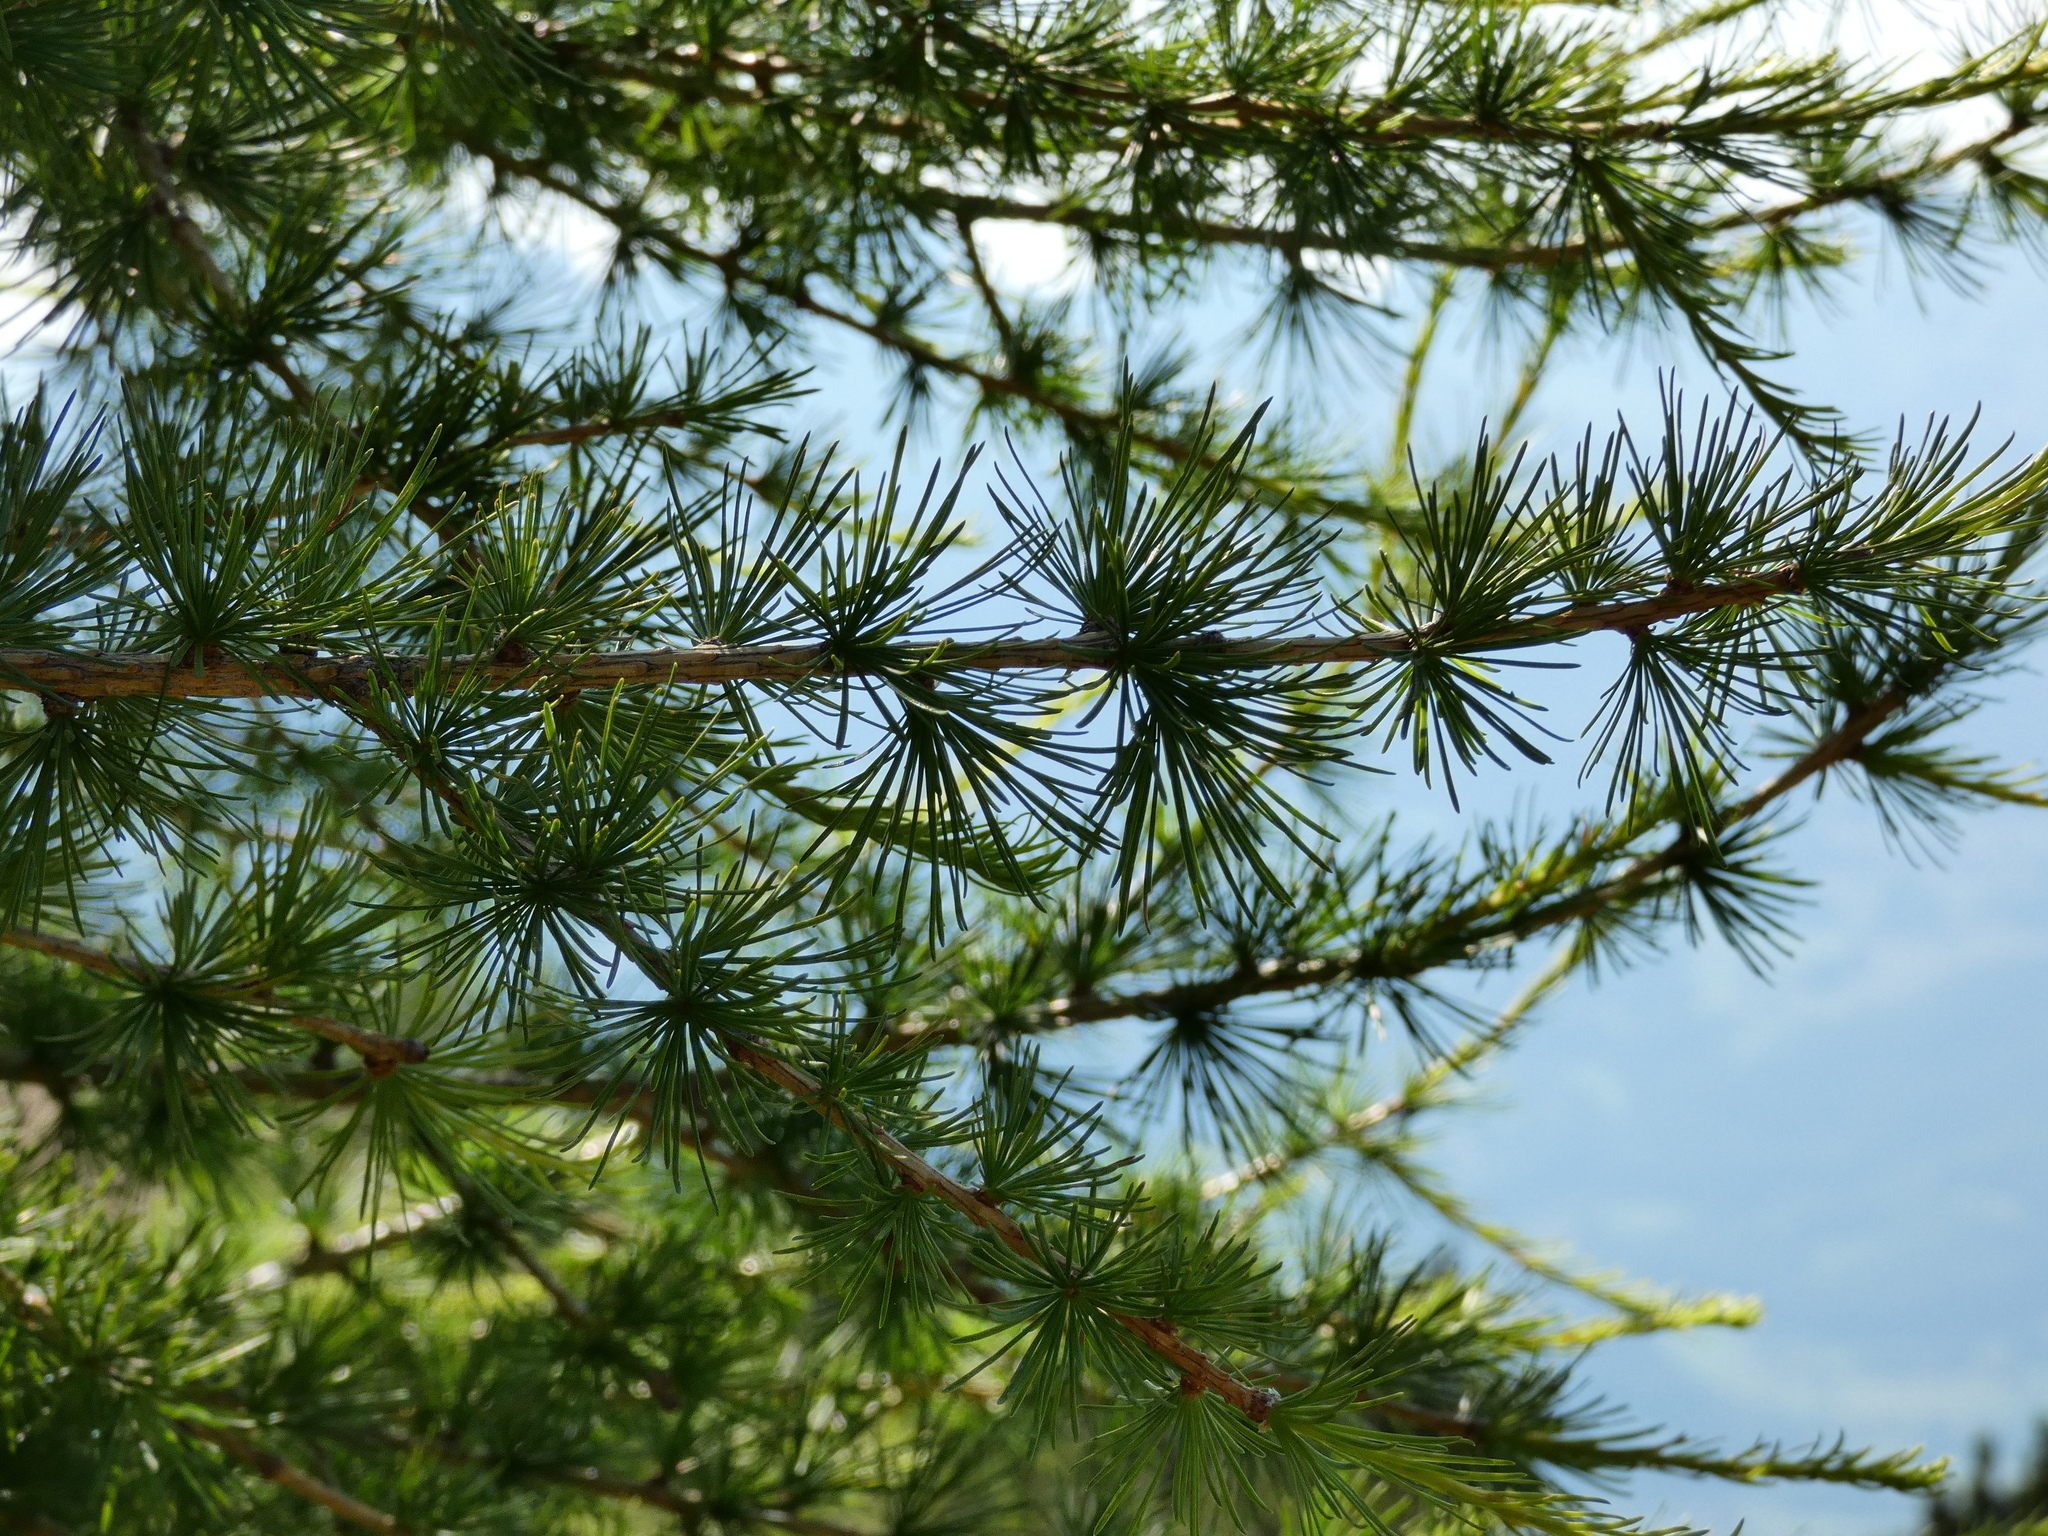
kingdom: Plantae
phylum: Tracheophyta
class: Pinopsida
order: Pinales
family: Pinaceae
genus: Larix
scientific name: Larix decidua
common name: European larch
